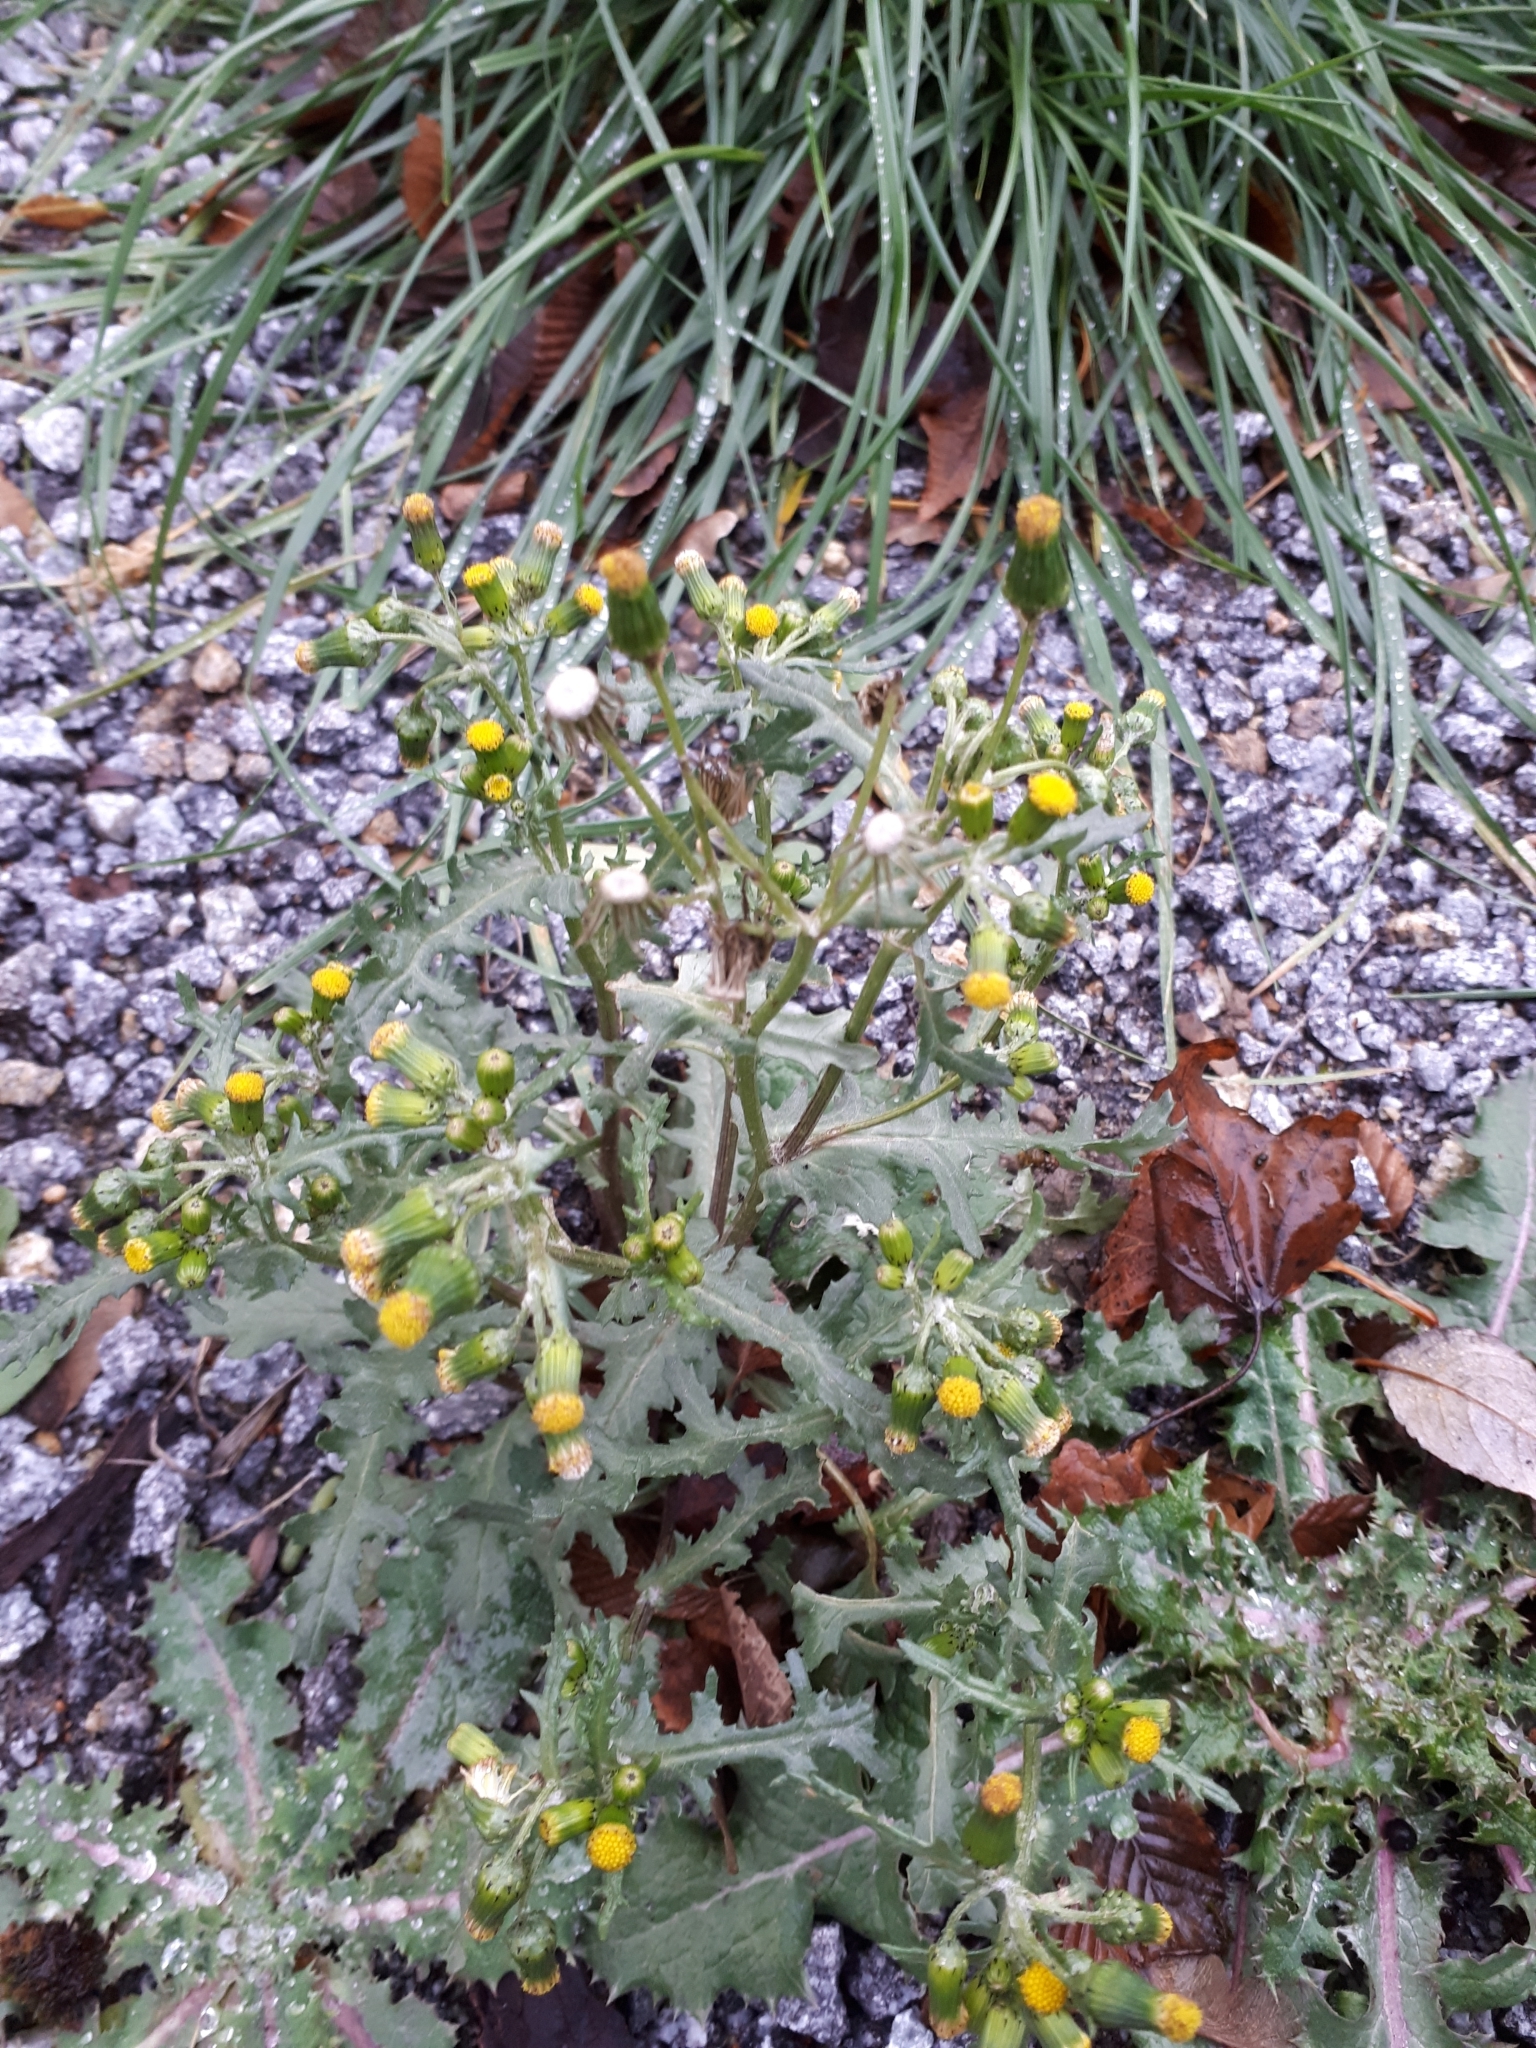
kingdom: Plantae
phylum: Tracheophyta
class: Magnoliopsida
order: Asterales
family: Asteraceae
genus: Senecio
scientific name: Senecio vulgaris
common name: Old-man-in-the-spring
